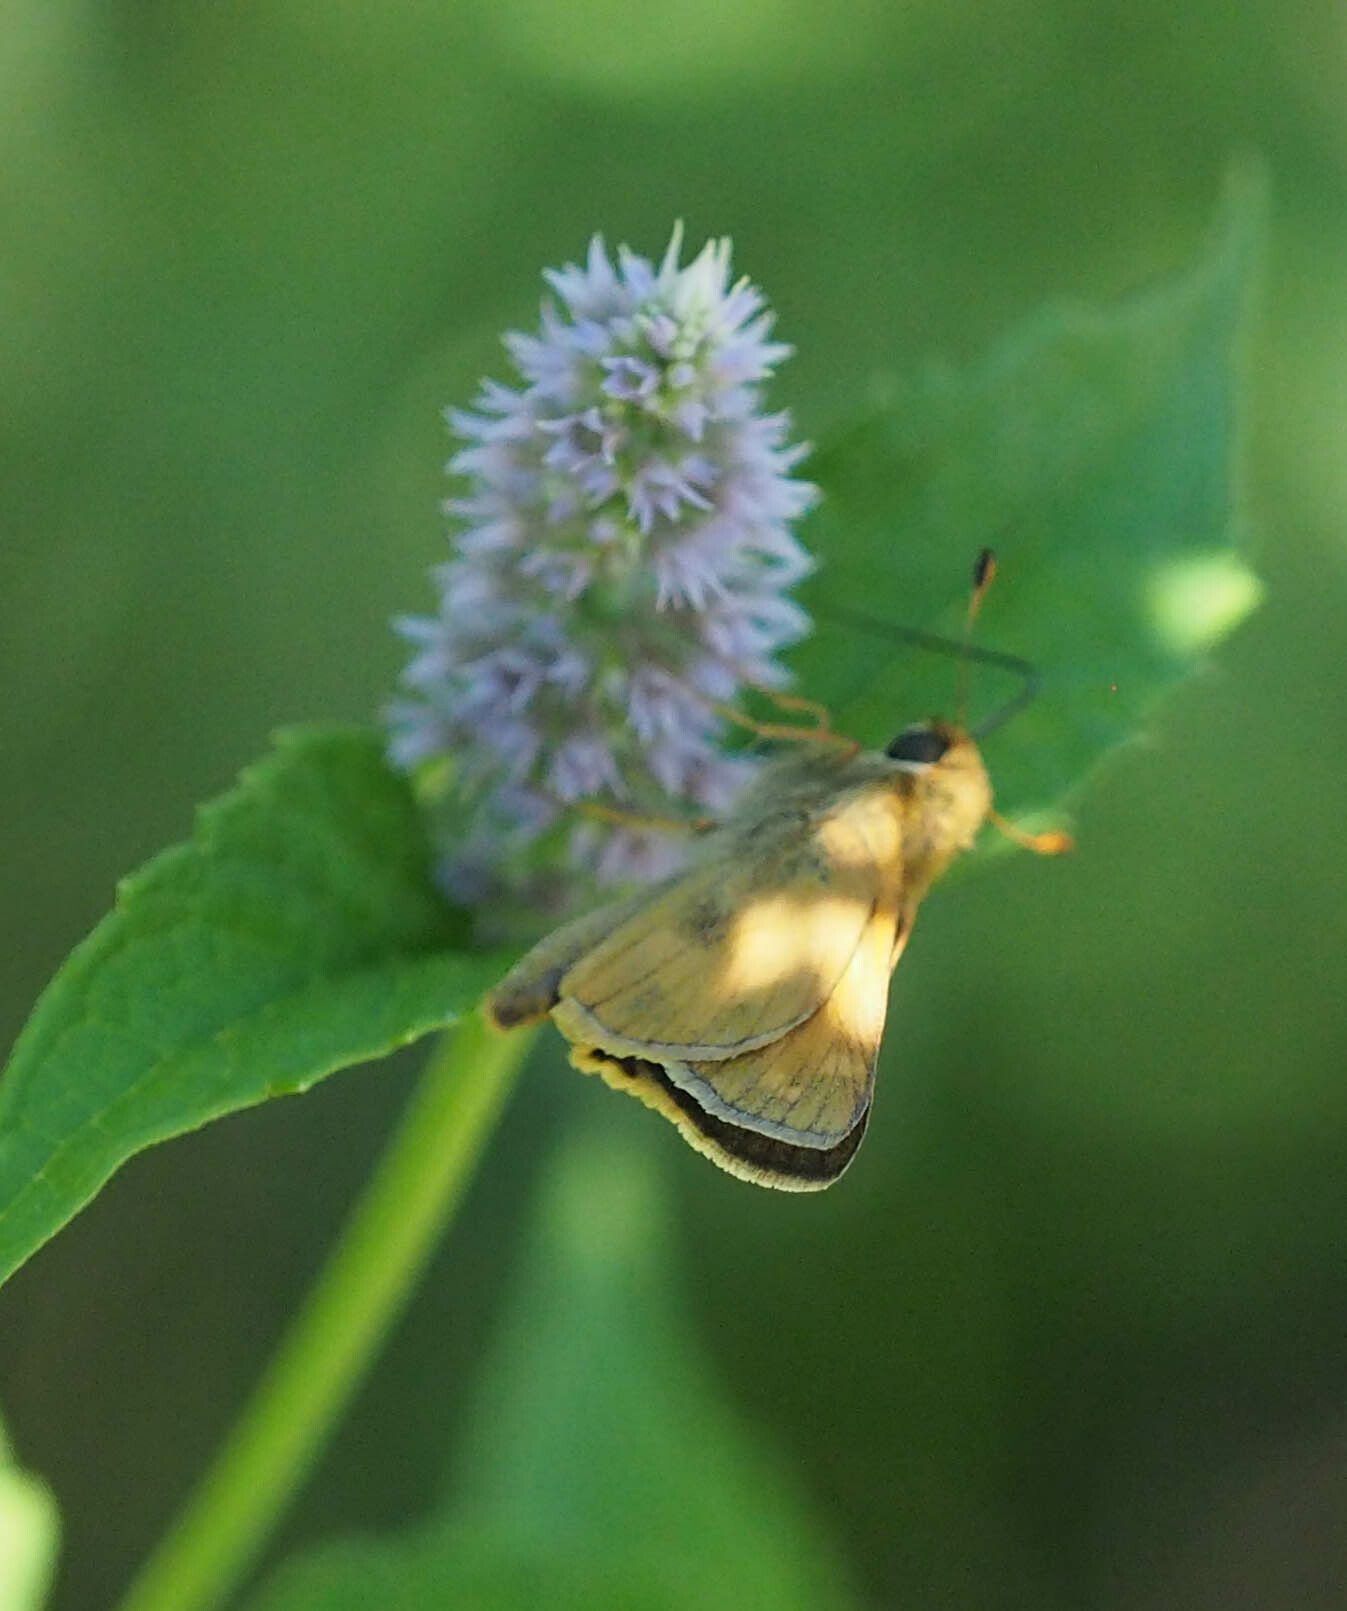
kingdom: Animalia
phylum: Arthropoda
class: Insecta
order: Lepidoptera
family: Hesperiidae
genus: Atalopedes
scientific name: Atalopedes
